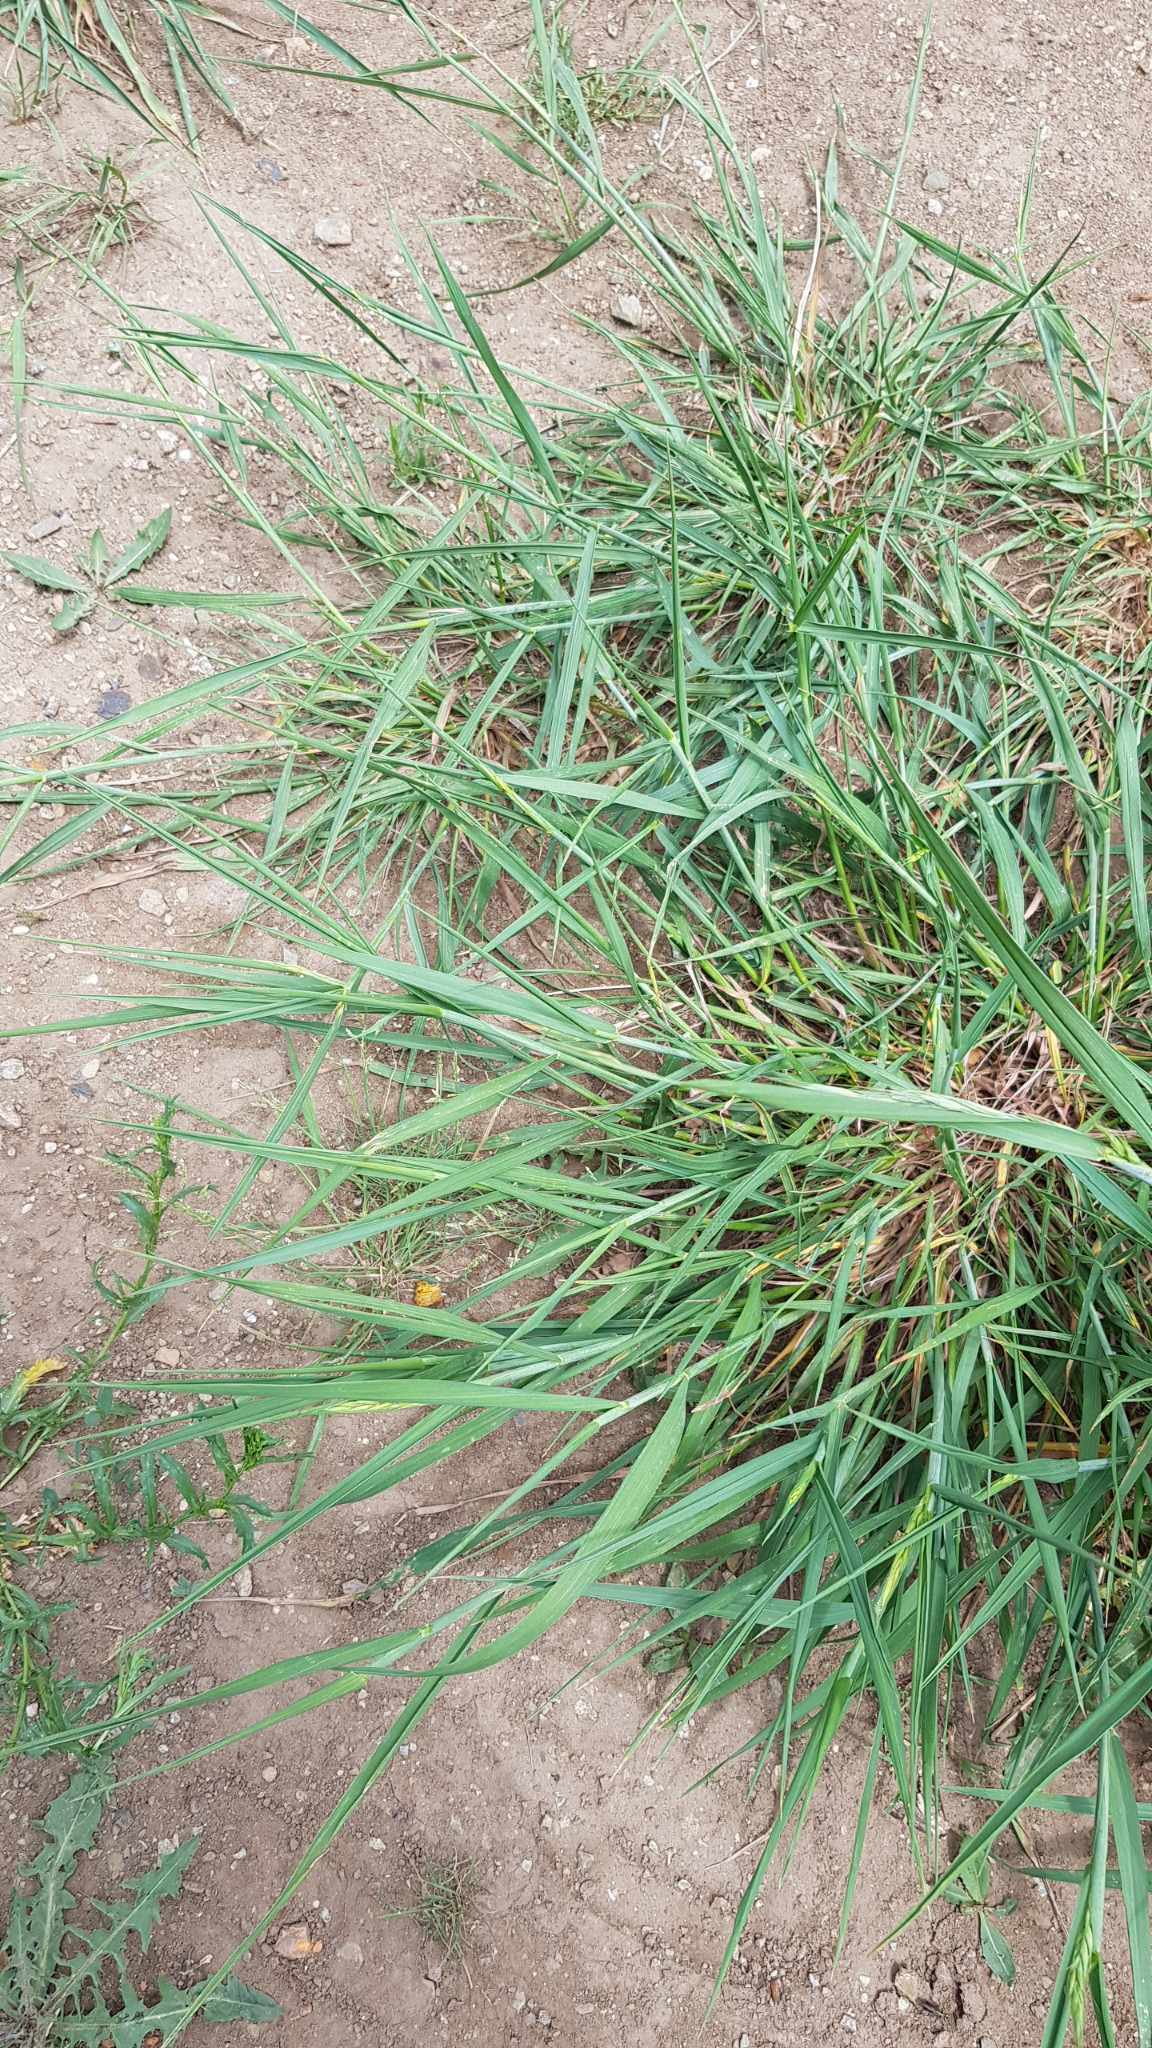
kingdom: Plantae
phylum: Tracheophyta
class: Liliopsida
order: Poales
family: Poaceae
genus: Elymus
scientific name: Elymus repens
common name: Quackgrass
